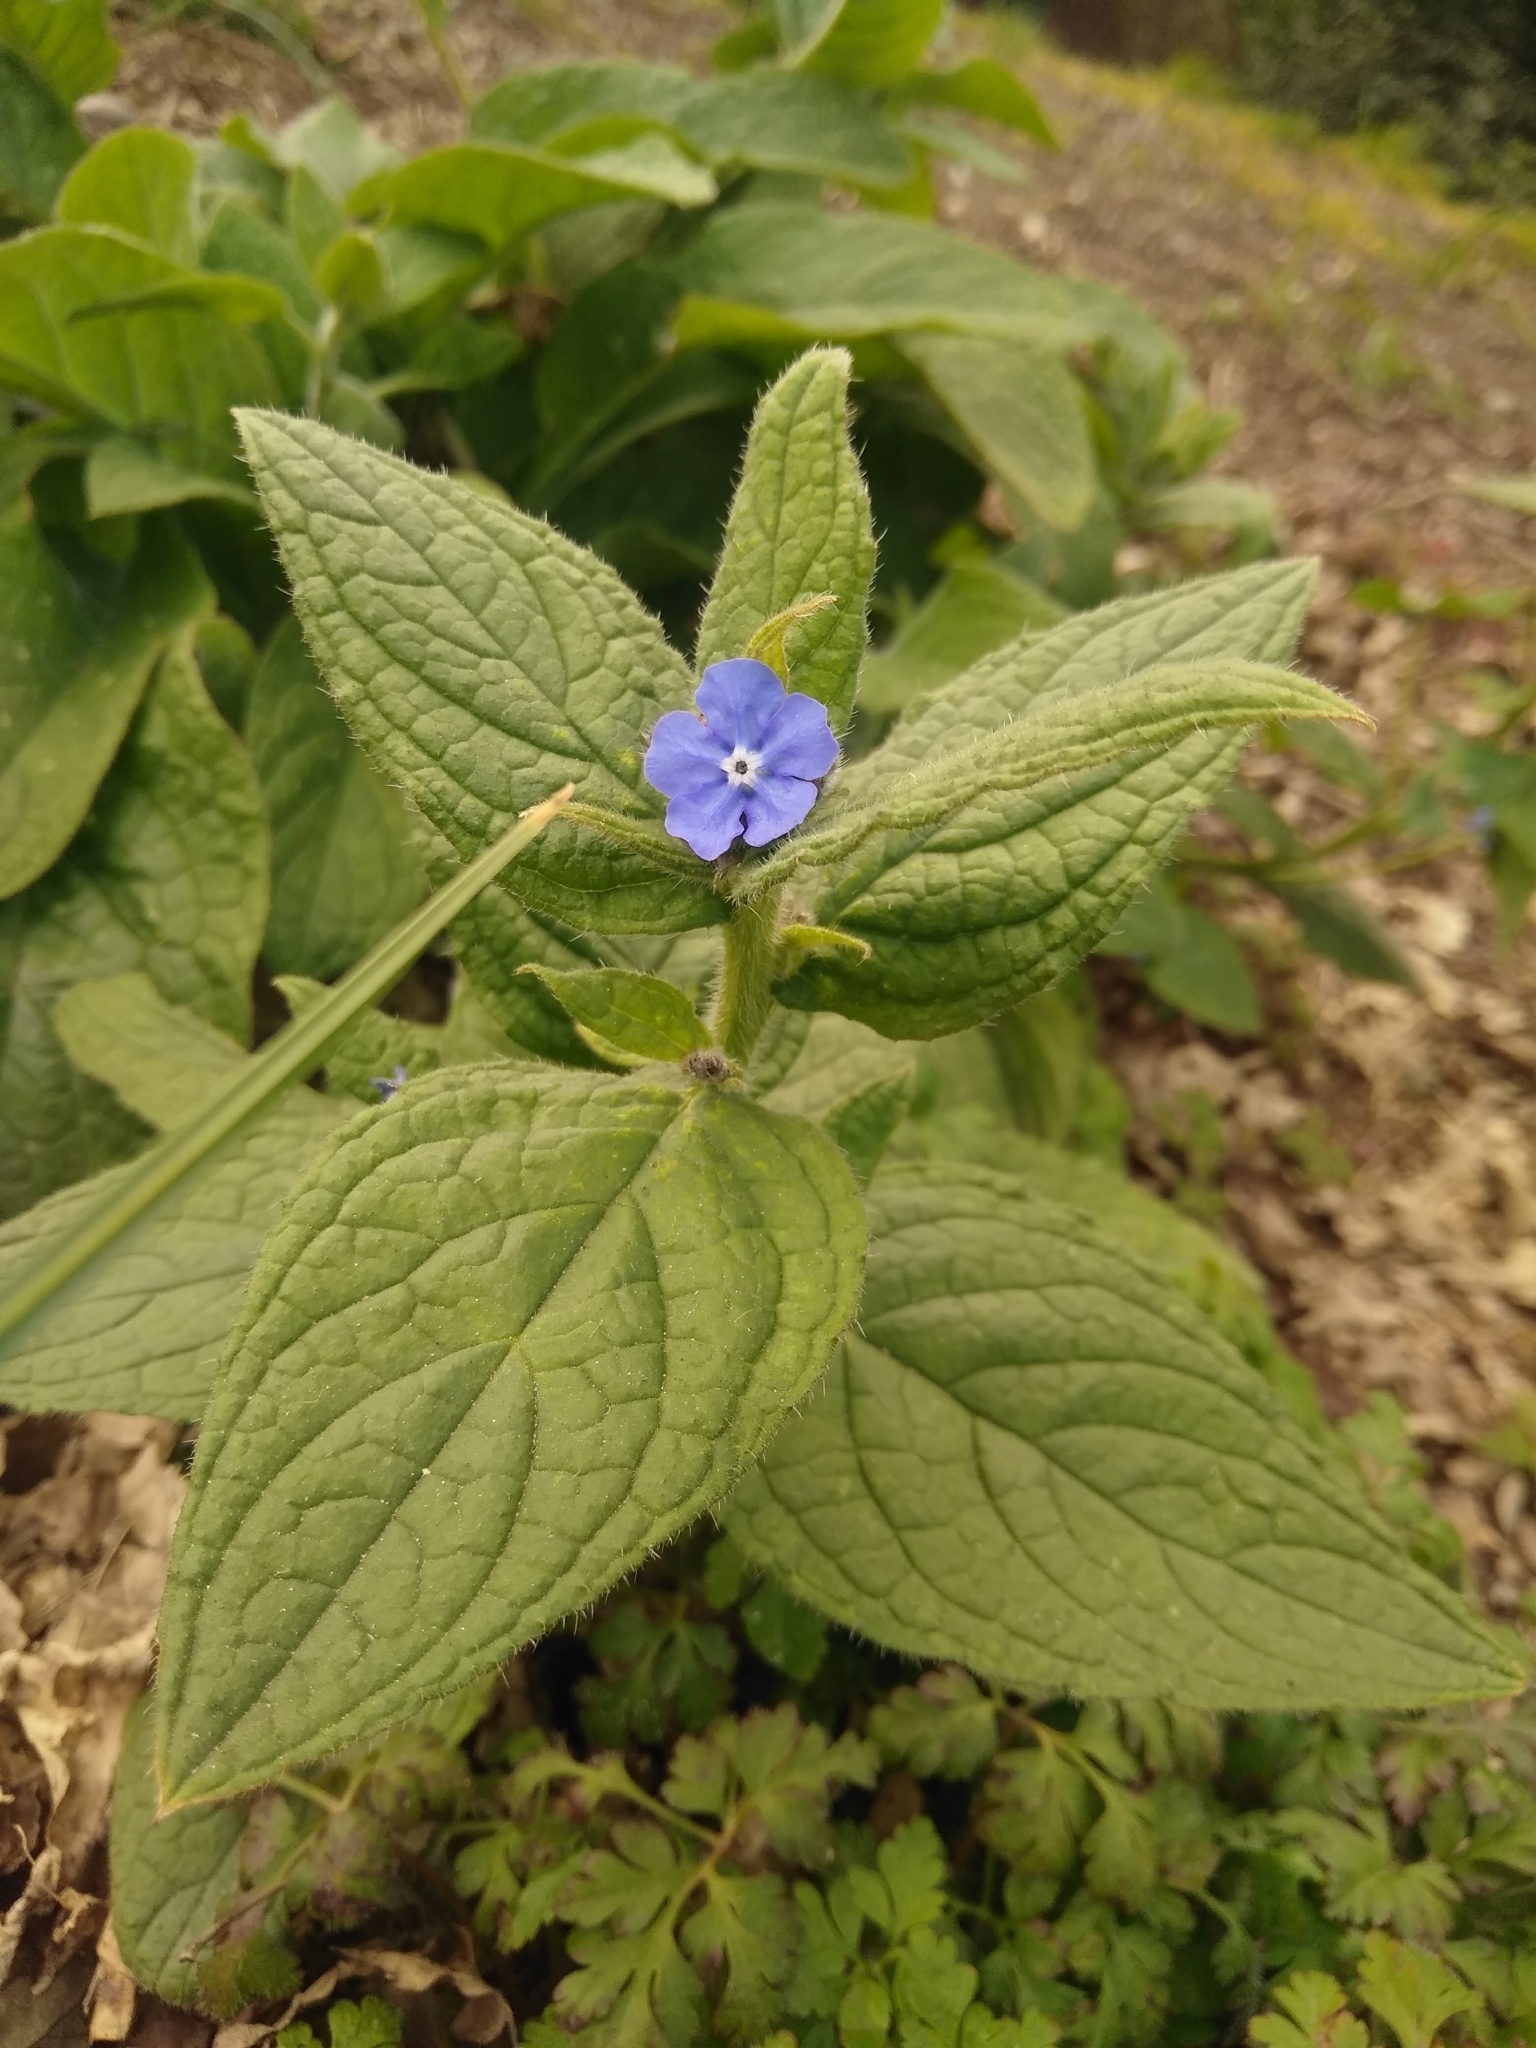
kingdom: Plantae
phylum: Tracheophyta
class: Magnoliopsida
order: Boraginales
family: Boraginaceae
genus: Pentaglottis
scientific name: Pentaglottis sempervirens
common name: Green alkanet
